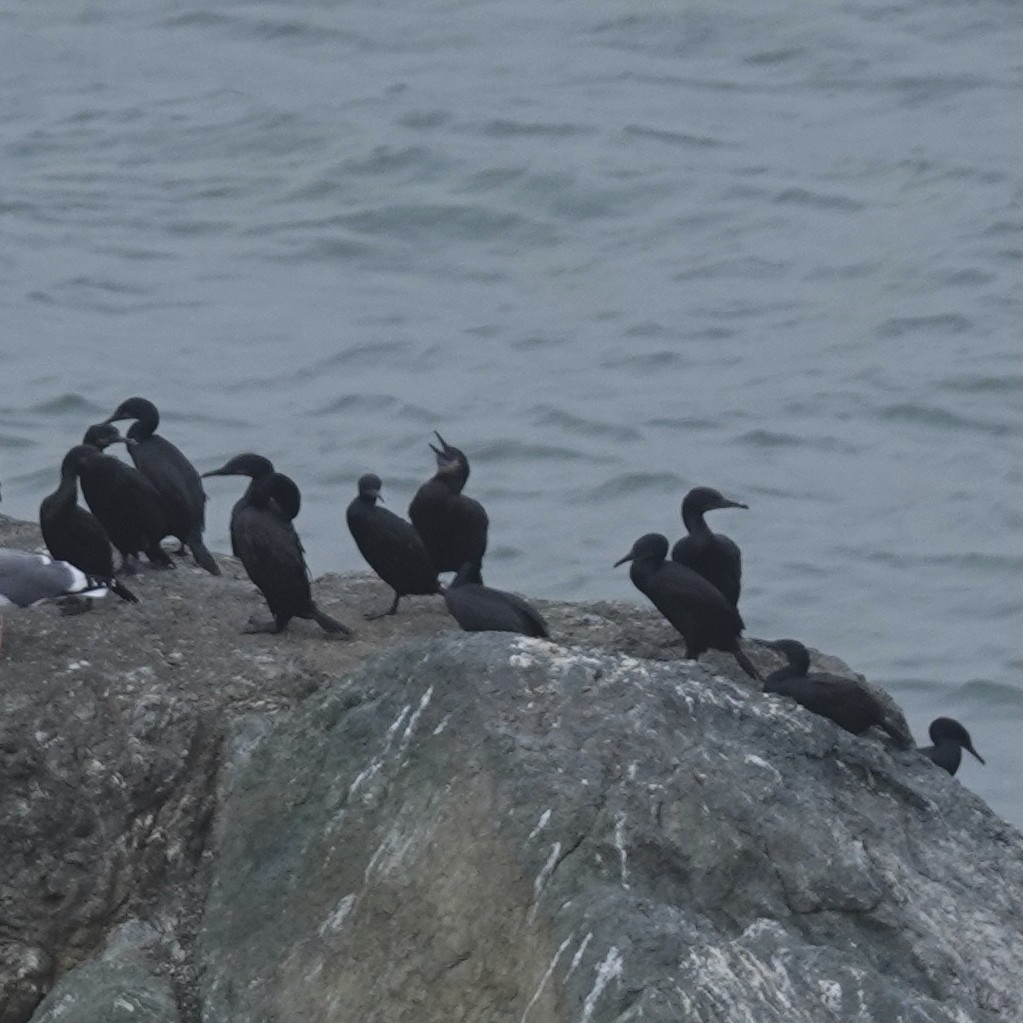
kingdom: Animalia
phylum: Chordata
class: Aves
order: Suliformes
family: Phalacrocoracidae
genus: Urile
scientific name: Urile penicillatus
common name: Brandt's cormorant
